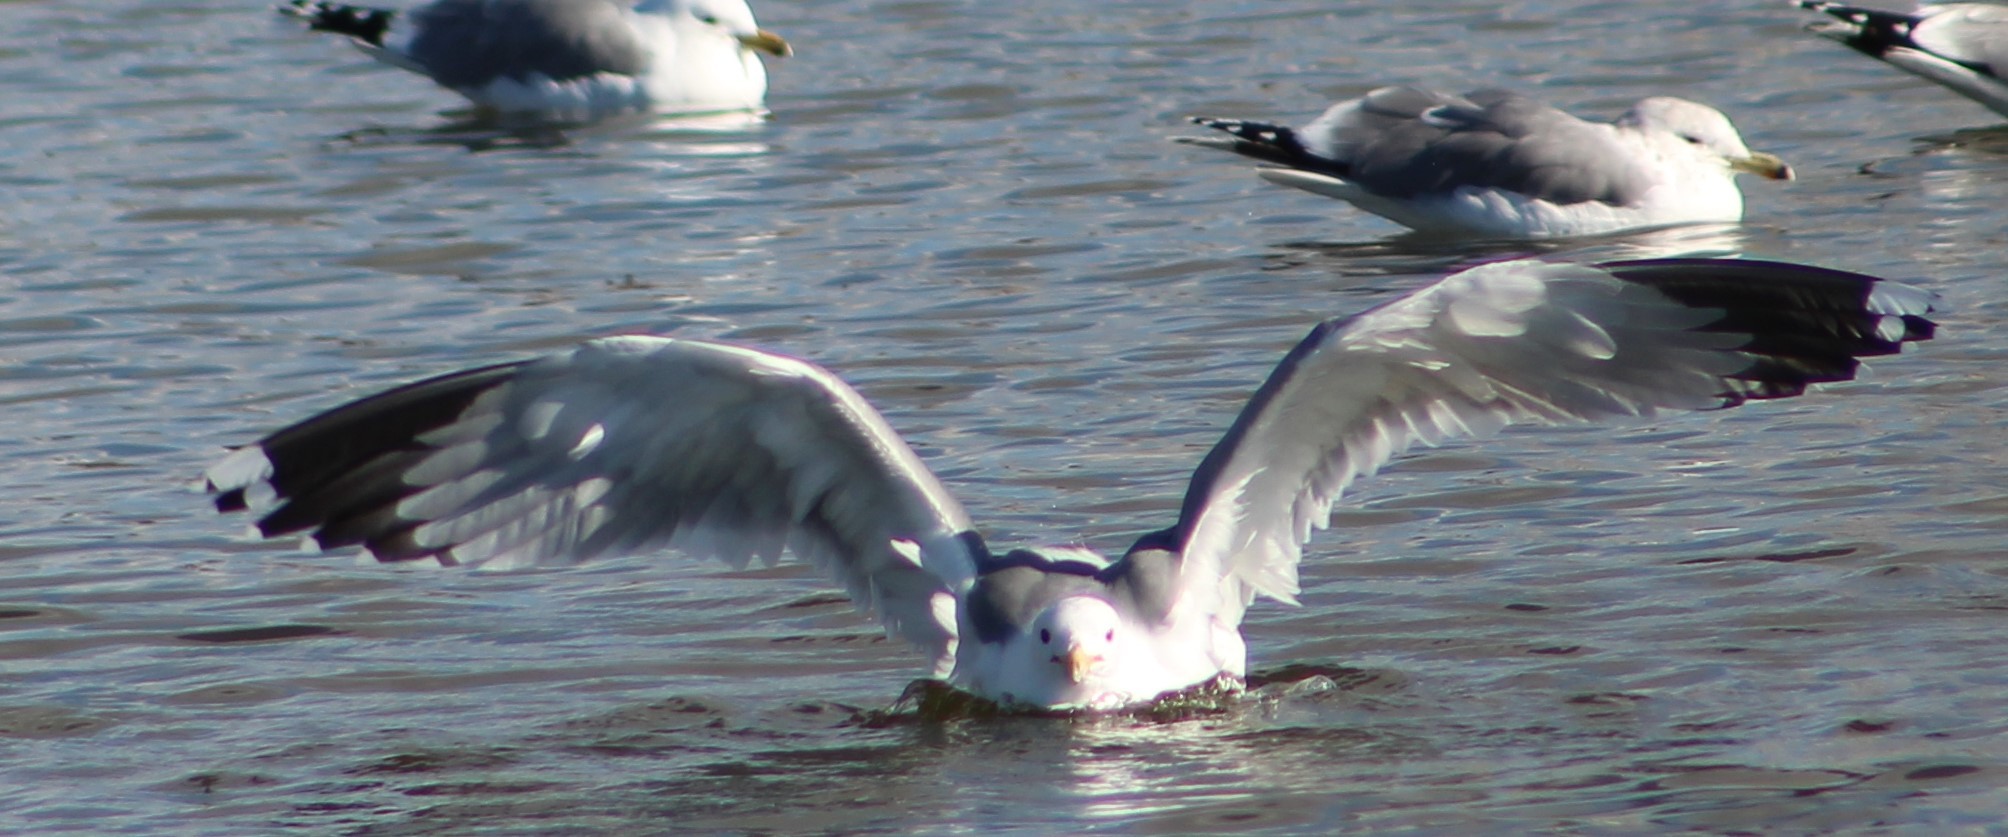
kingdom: Animalia
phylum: Chordata
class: Aves
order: Charadriiformes
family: Laridae
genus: Larus
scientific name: Larus californicus
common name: California gull
